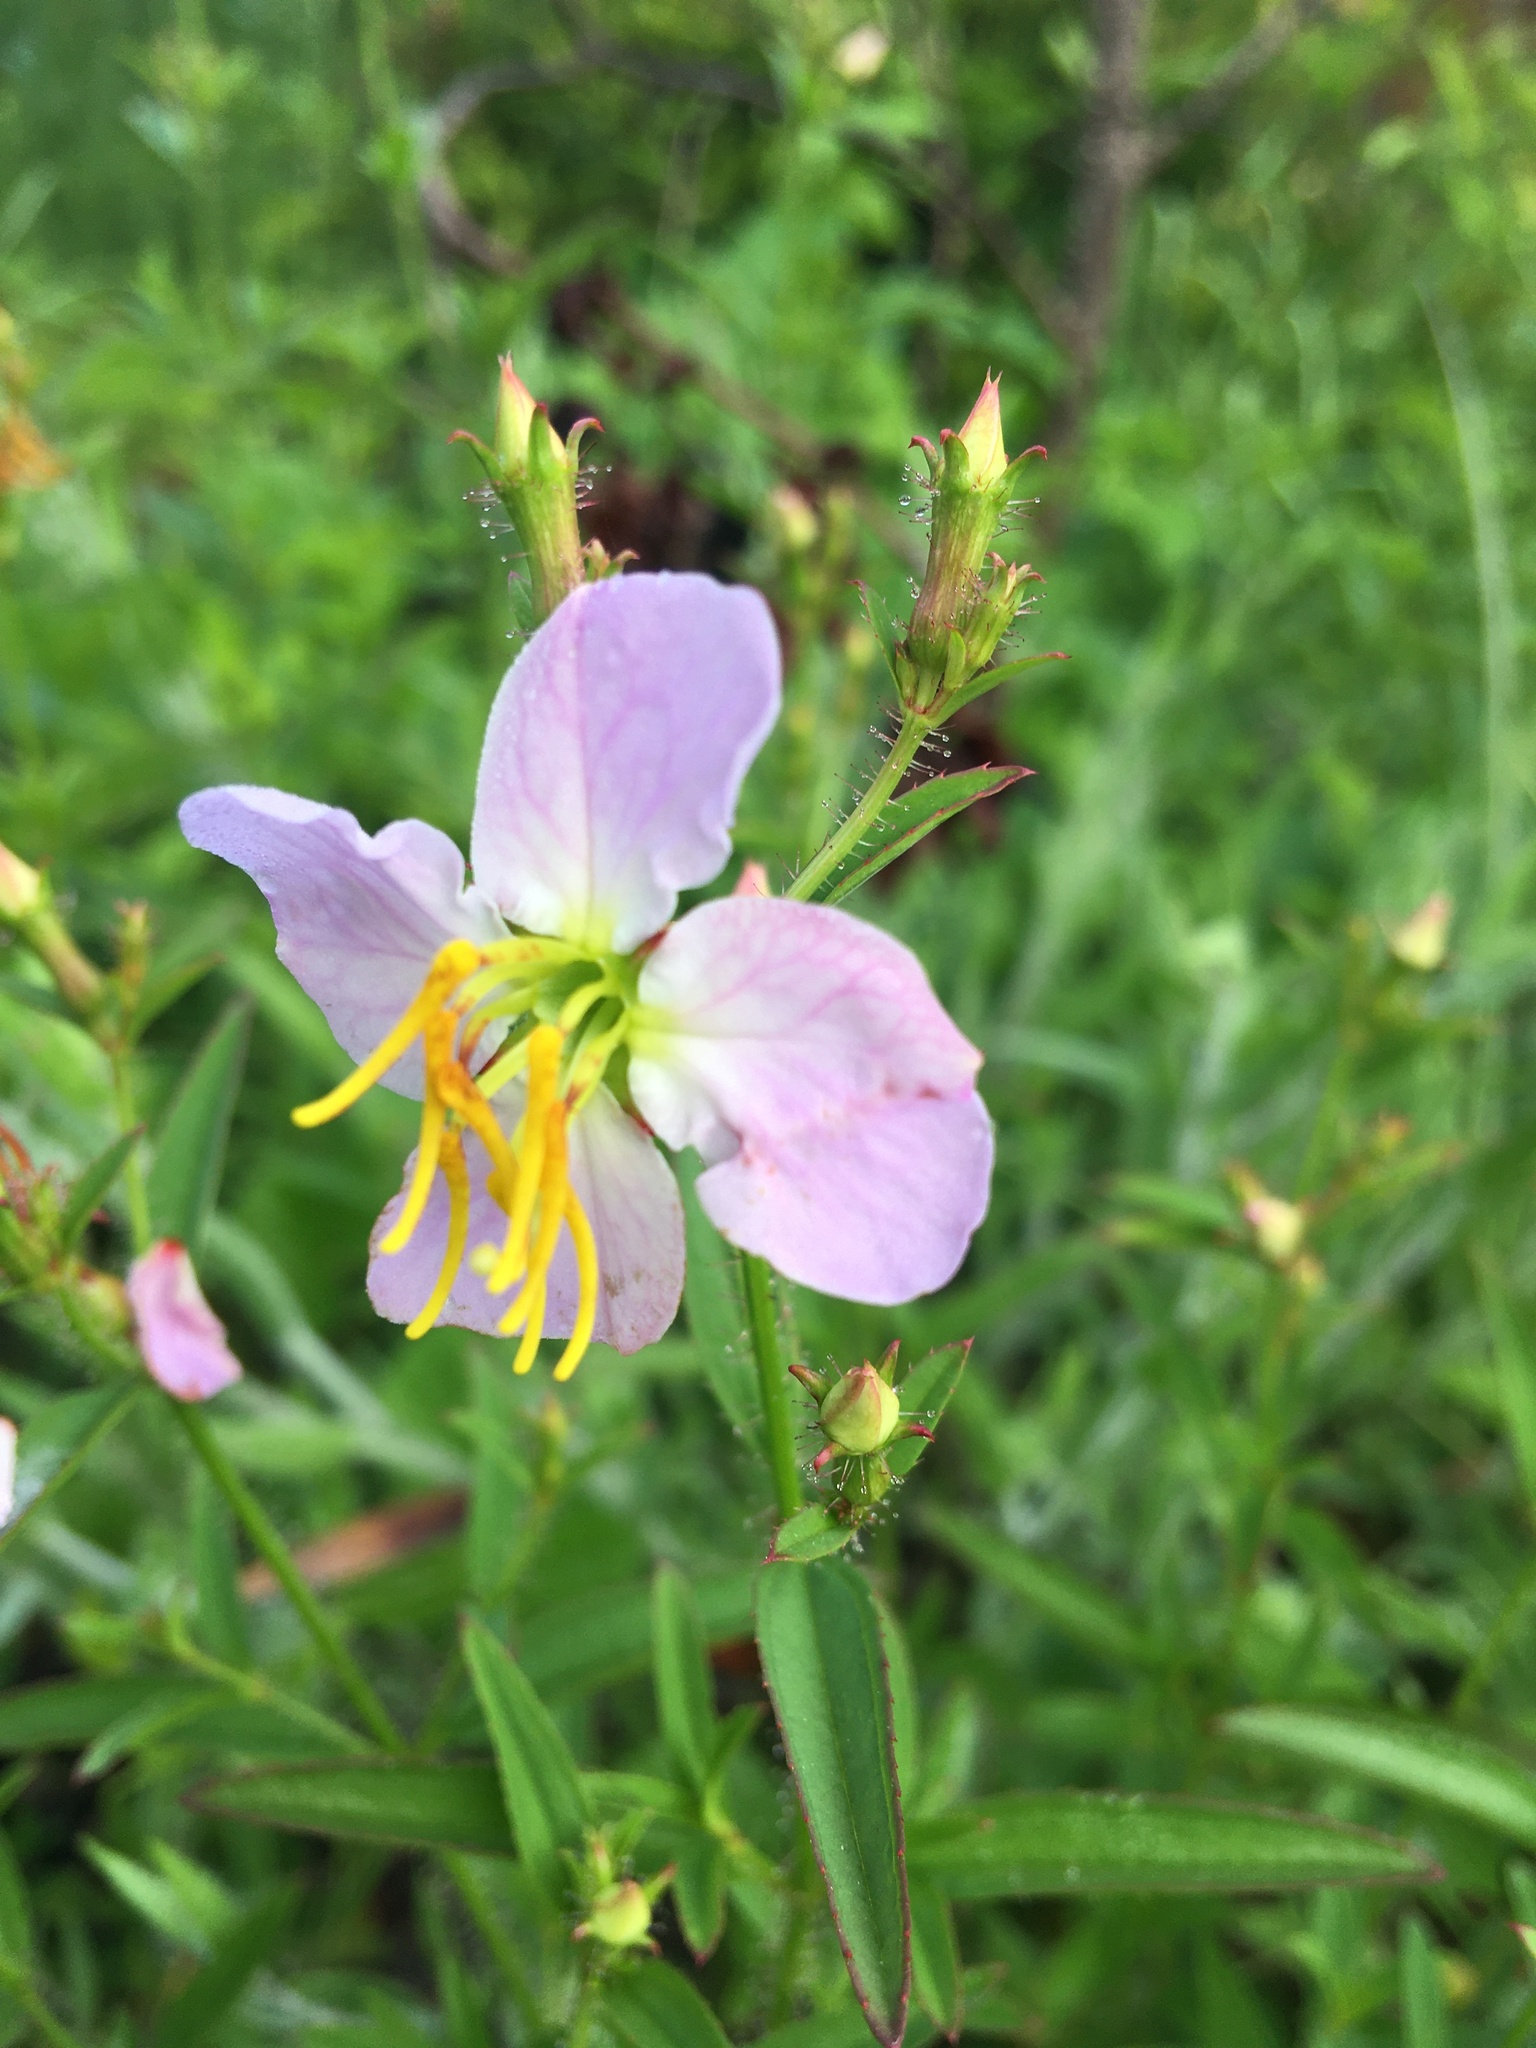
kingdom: Plantae
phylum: Tracheophyta
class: Magnoliopsida
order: Myrtales
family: Melastomataceae
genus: Rhexia
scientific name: Rhexia mariana
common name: Dull meadow-pitcher
